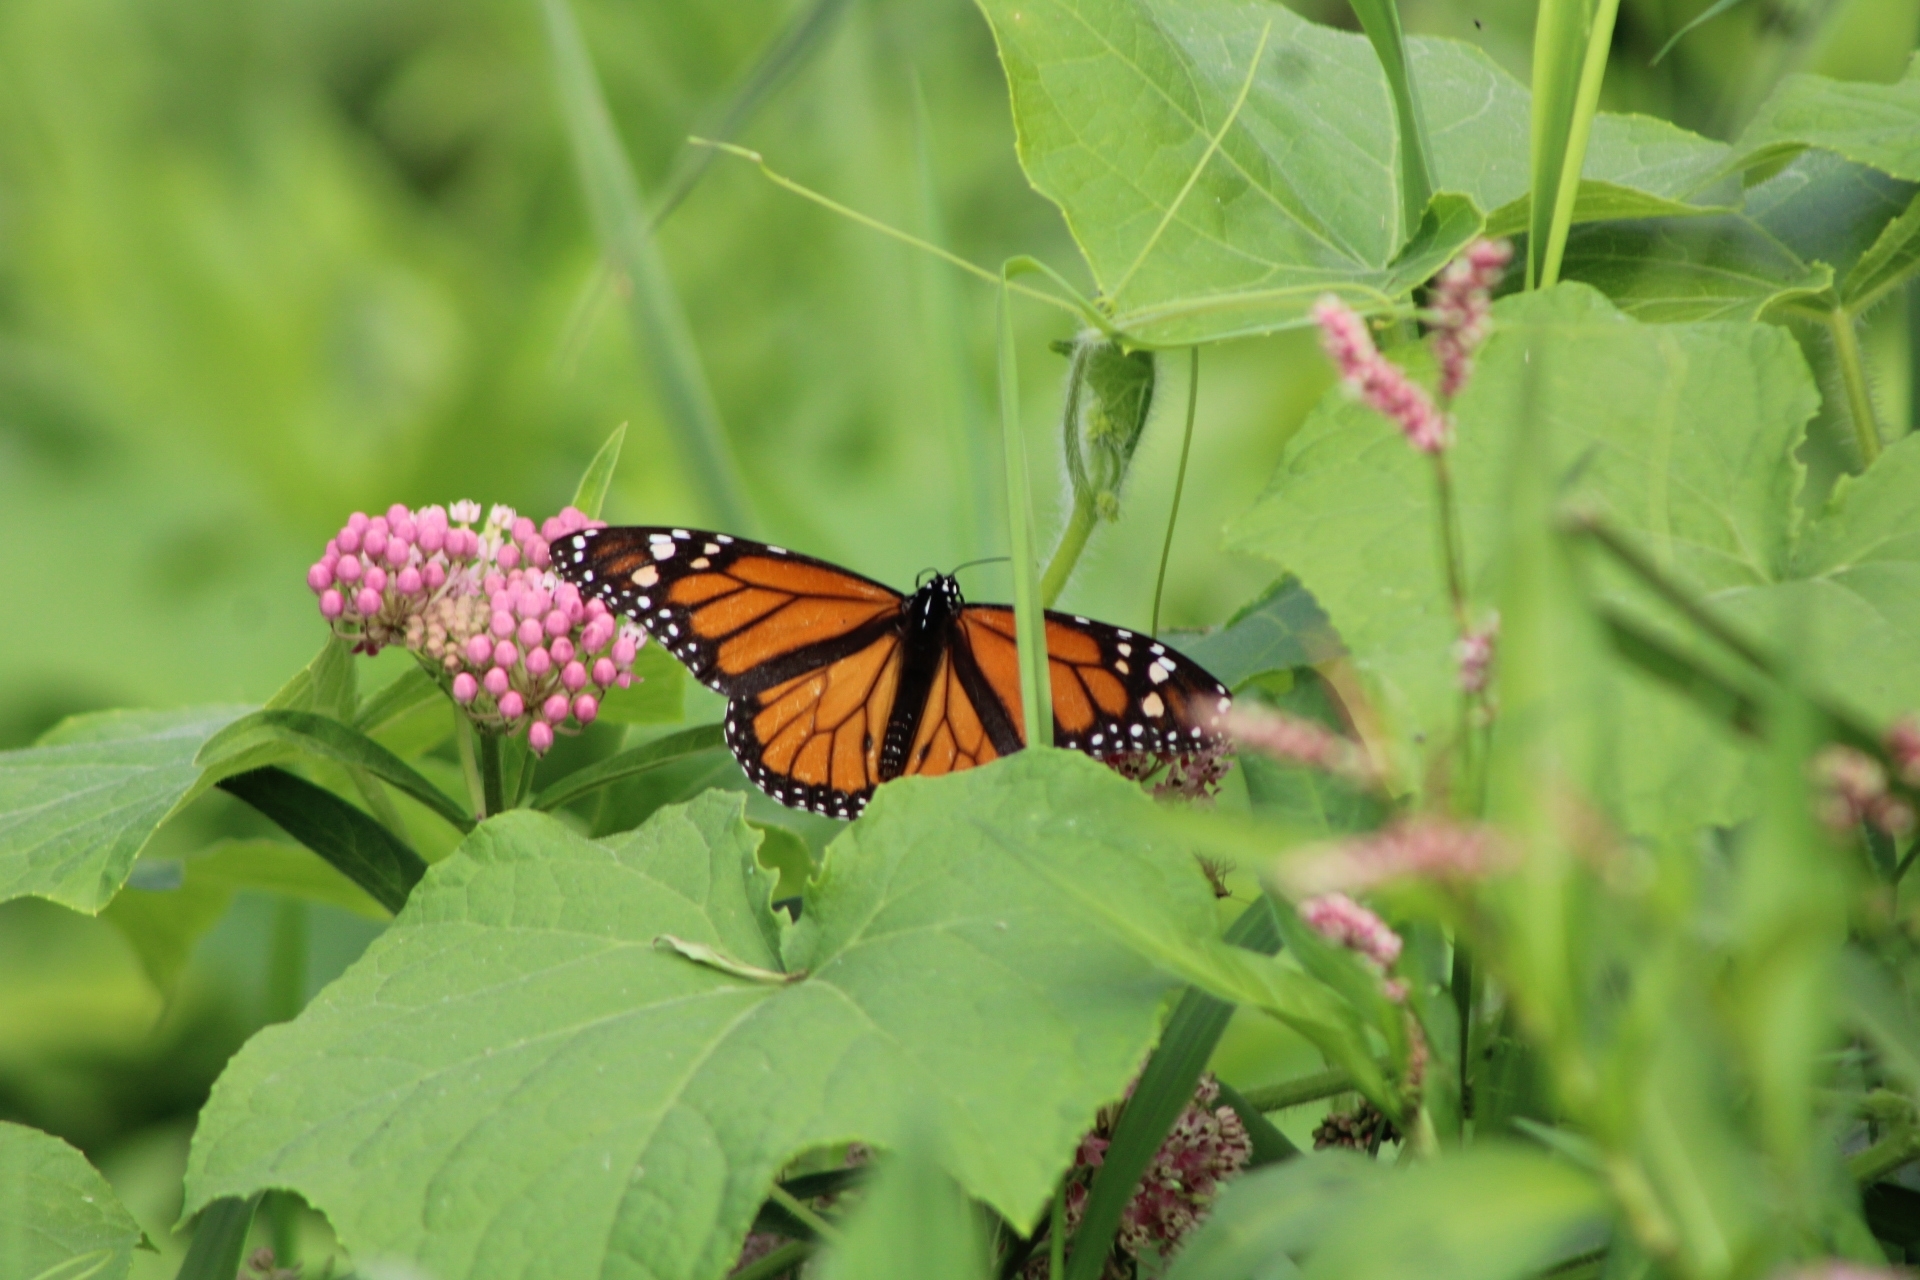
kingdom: Animalia
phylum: Arthropoda
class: Insecta
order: Lepidoptera
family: Nymphalidae
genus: Danaus
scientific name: Danaus plexippus
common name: Monarch
